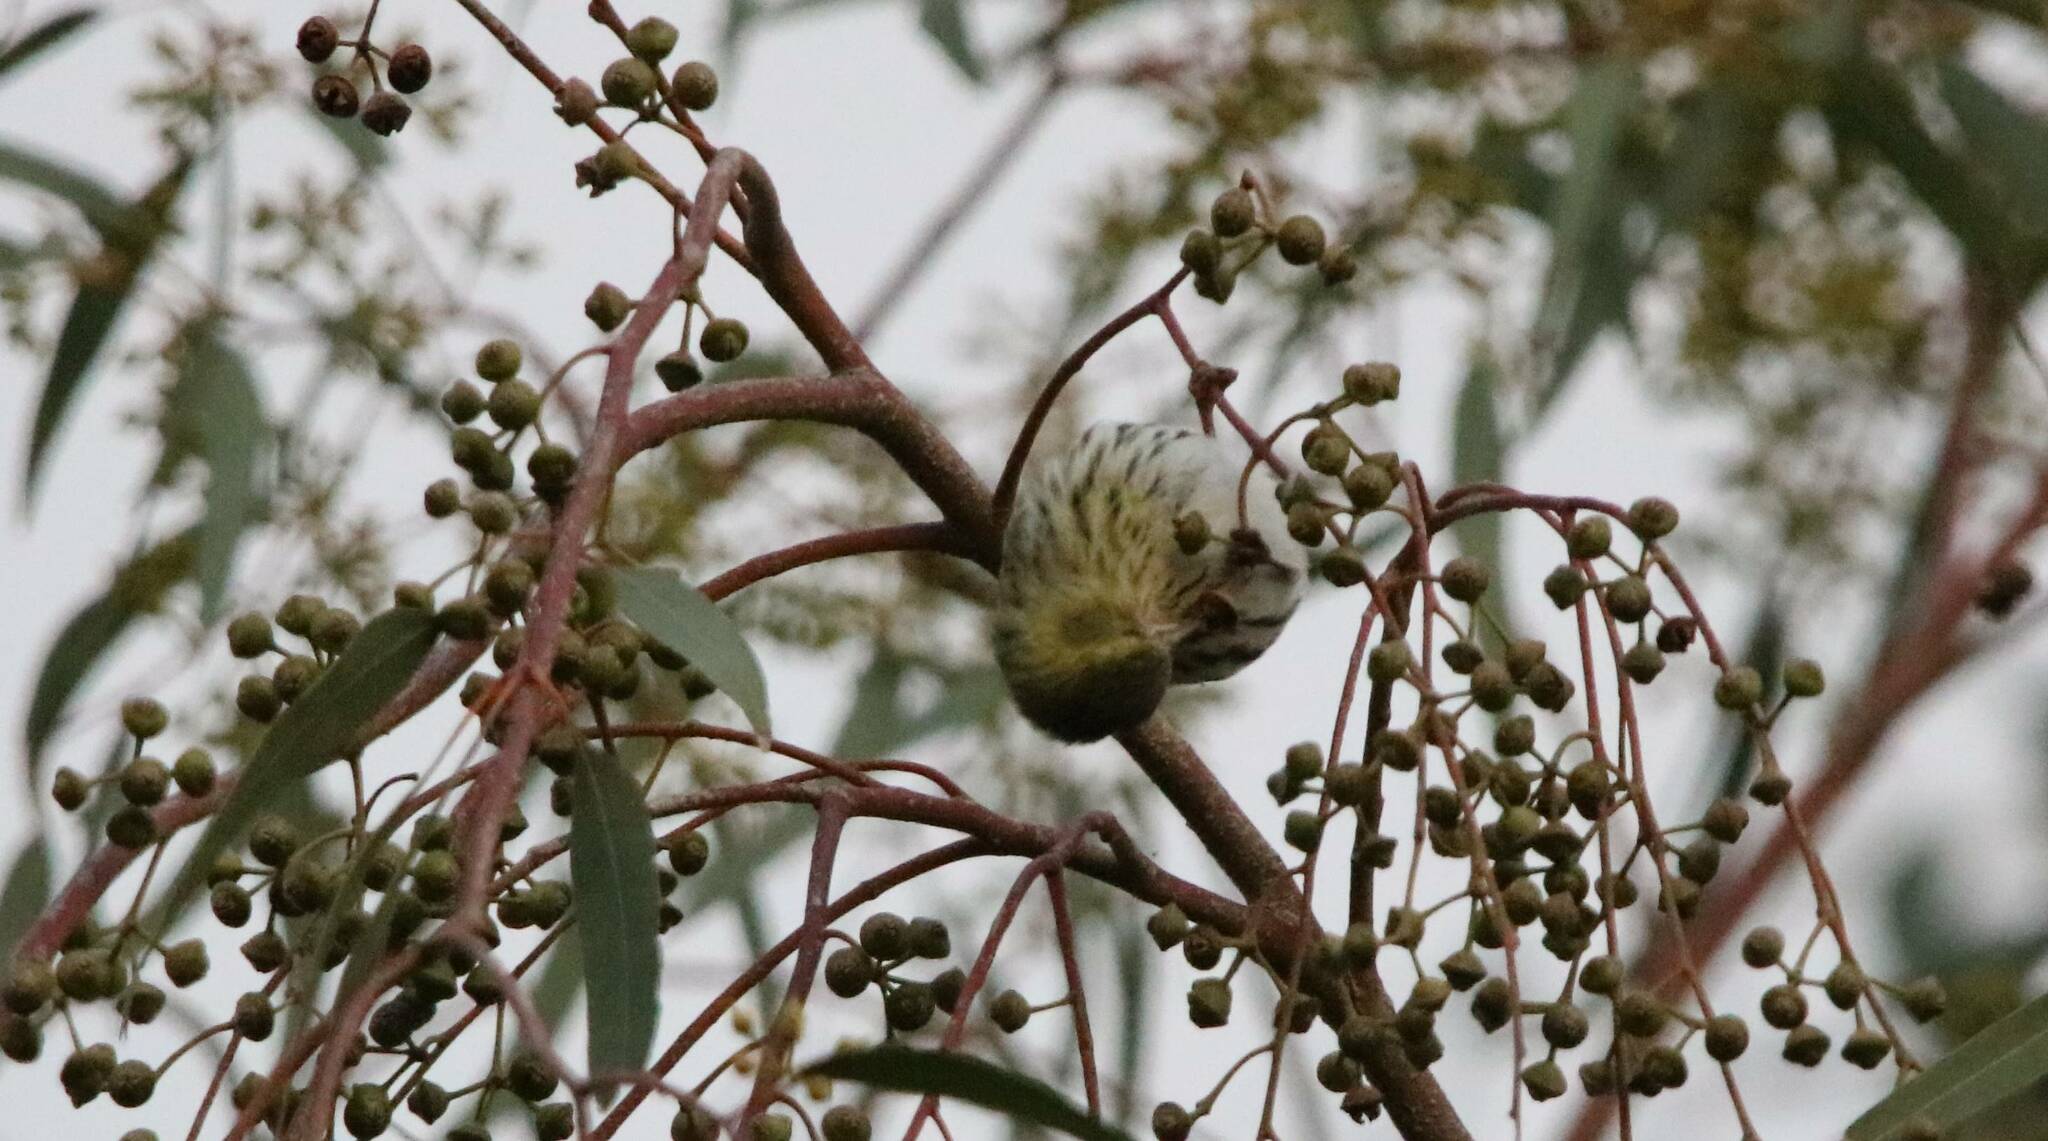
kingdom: Animalia
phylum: Chordata
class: Aves
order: Passeriformes
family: Fringillidae
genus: Spinus
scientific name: Spinus spinus
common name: Eurasian siskin
